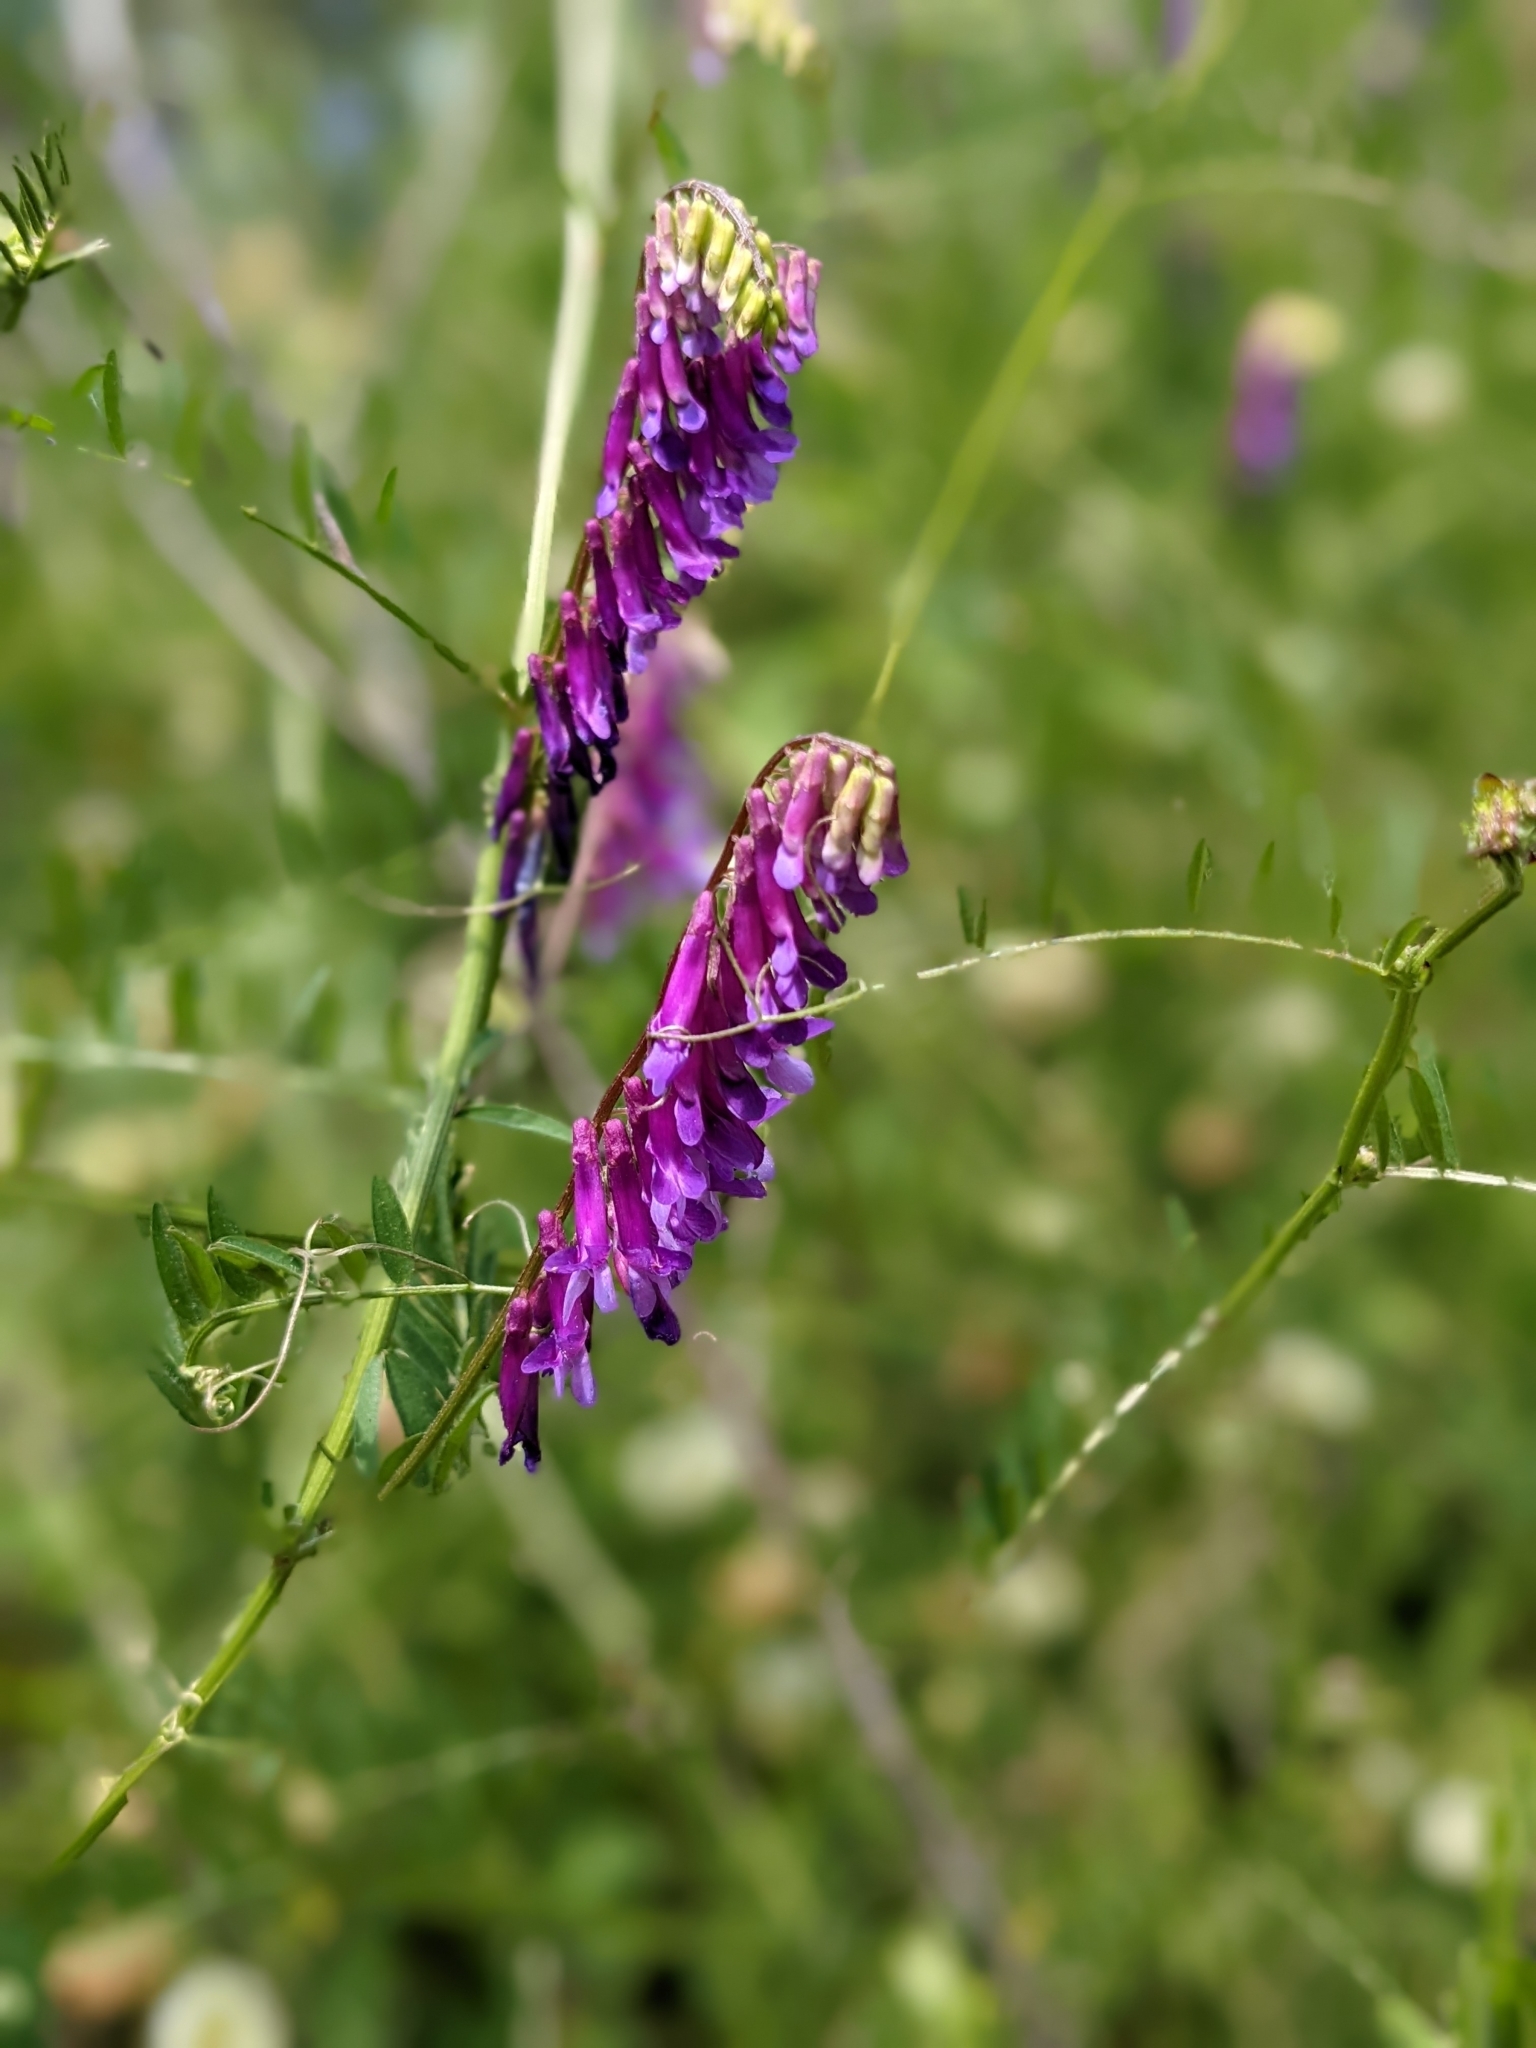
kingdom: Plantae
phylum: Tracheophyta
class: Magnoliopsida
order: Fabales
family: Fabaceae
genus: Vicia
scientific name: Vicia villosa
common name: Fodder vetch
